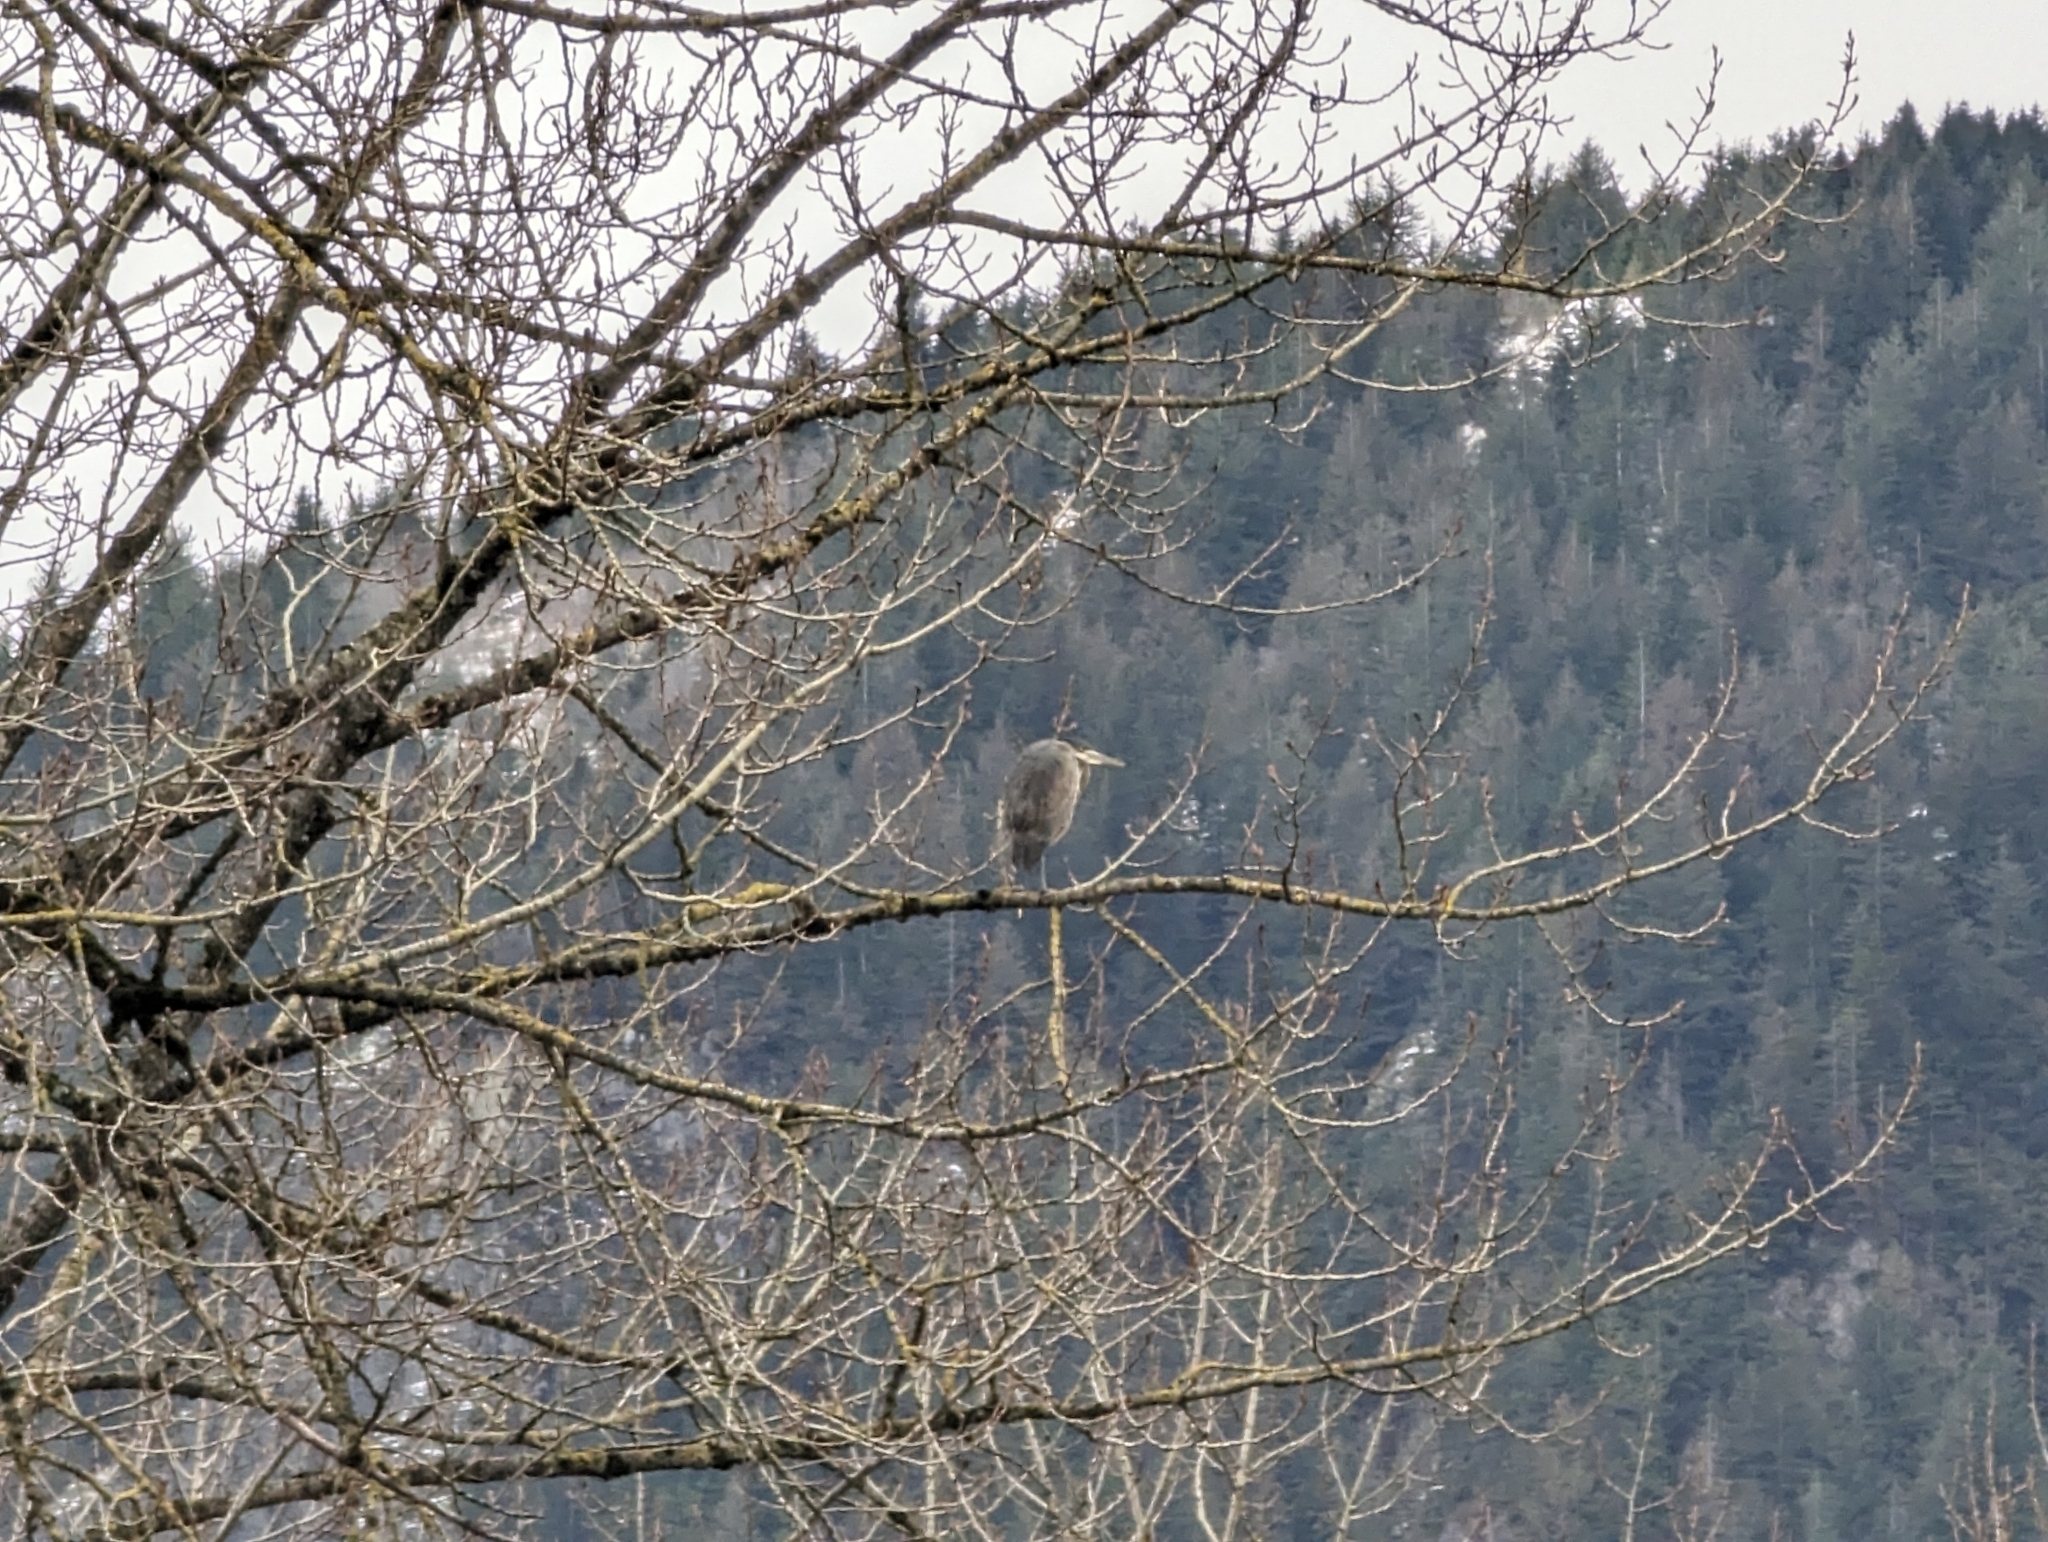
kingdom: Animalia
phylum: Chordata
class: Aves
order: Pelecaniformes
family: Ardeidae
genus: Ardea
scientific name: Ardea herodias
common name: Great blue heron
